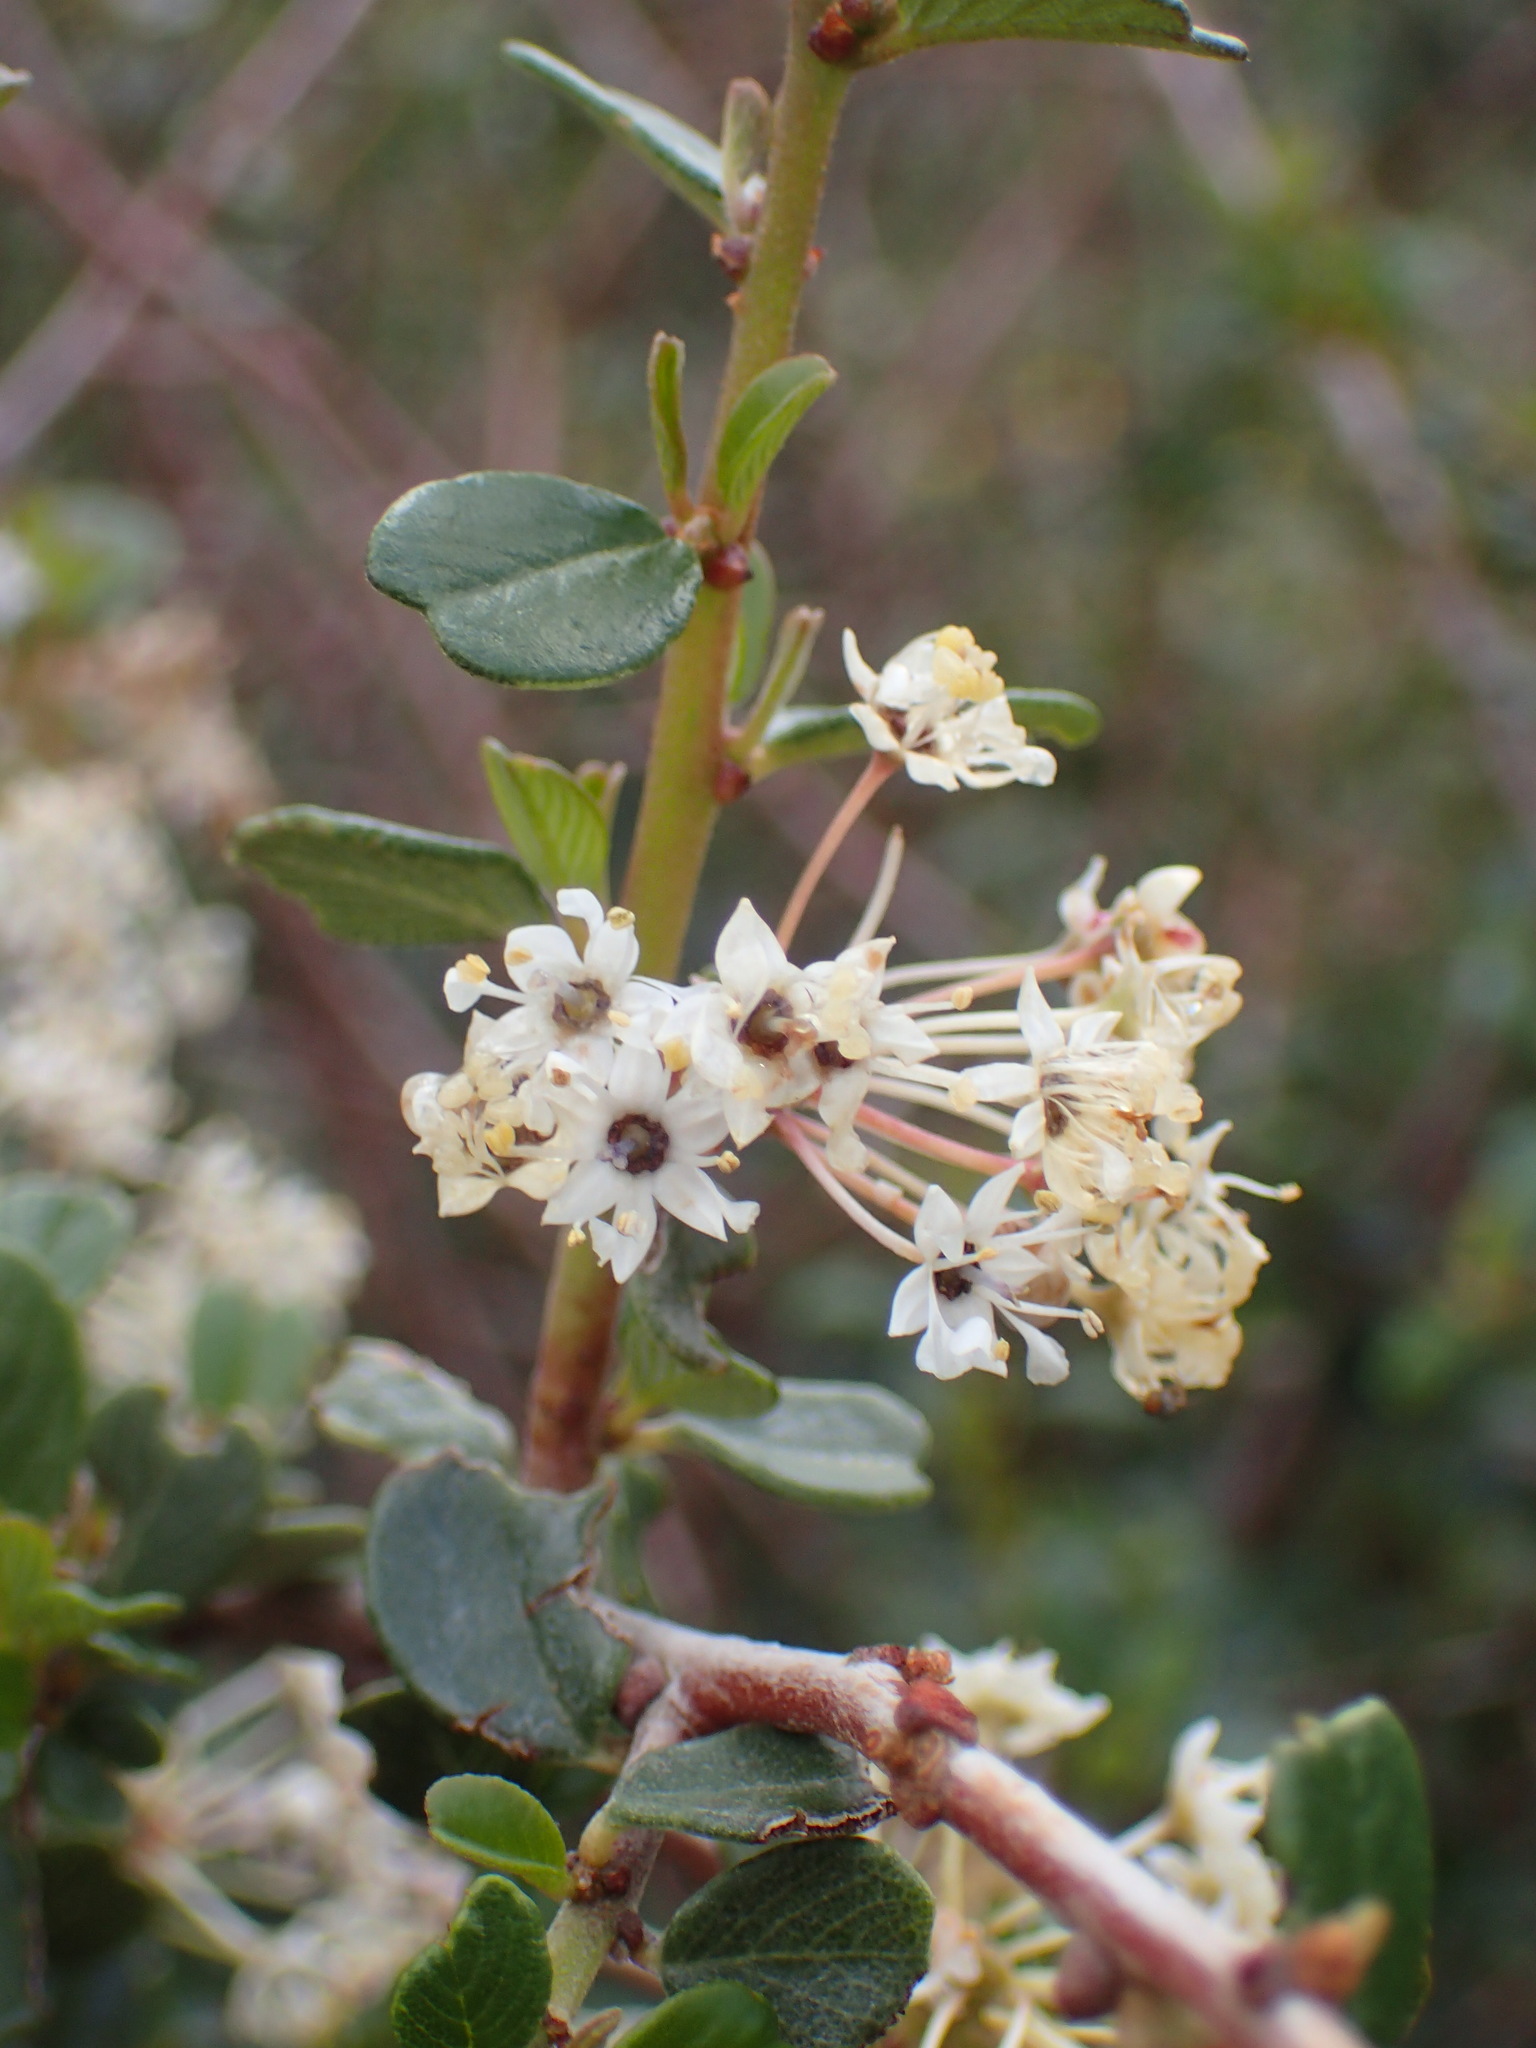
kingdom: Plantae
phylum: Tracheophyta
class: Magnoliopsida
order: Rosales
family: Rhamnaceae
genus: Ceanothus
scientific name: Ceanothus megacarpus
